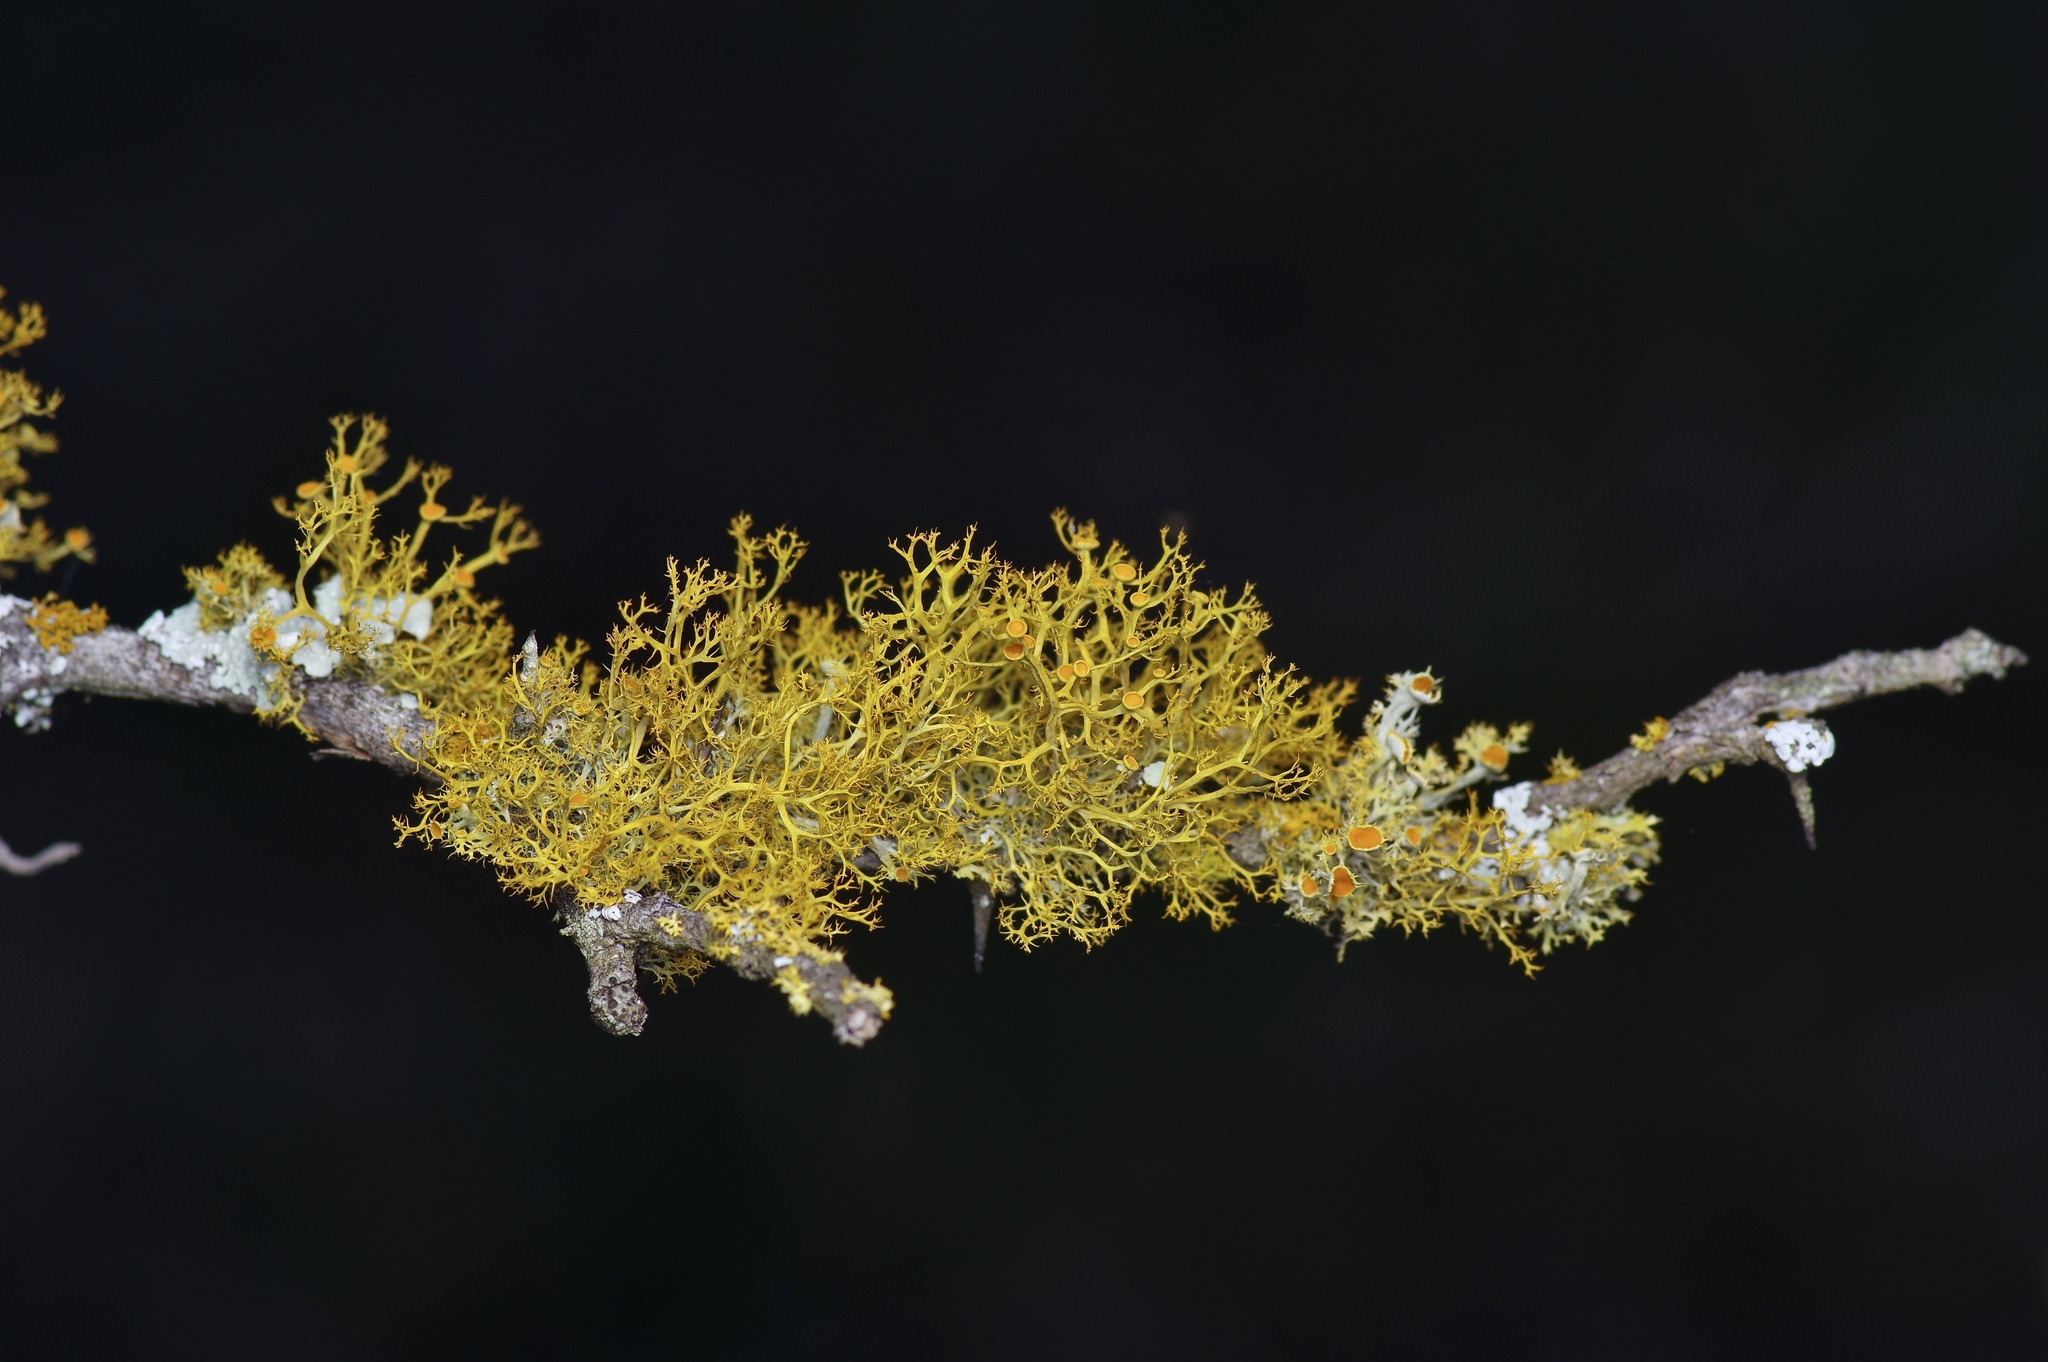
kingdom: Fungi
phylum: Ascomycota
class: Lecanoromycetes
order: Teloschistales
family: Teloschistaceae
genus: Teloschistes
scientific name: Teloschistes exilis
